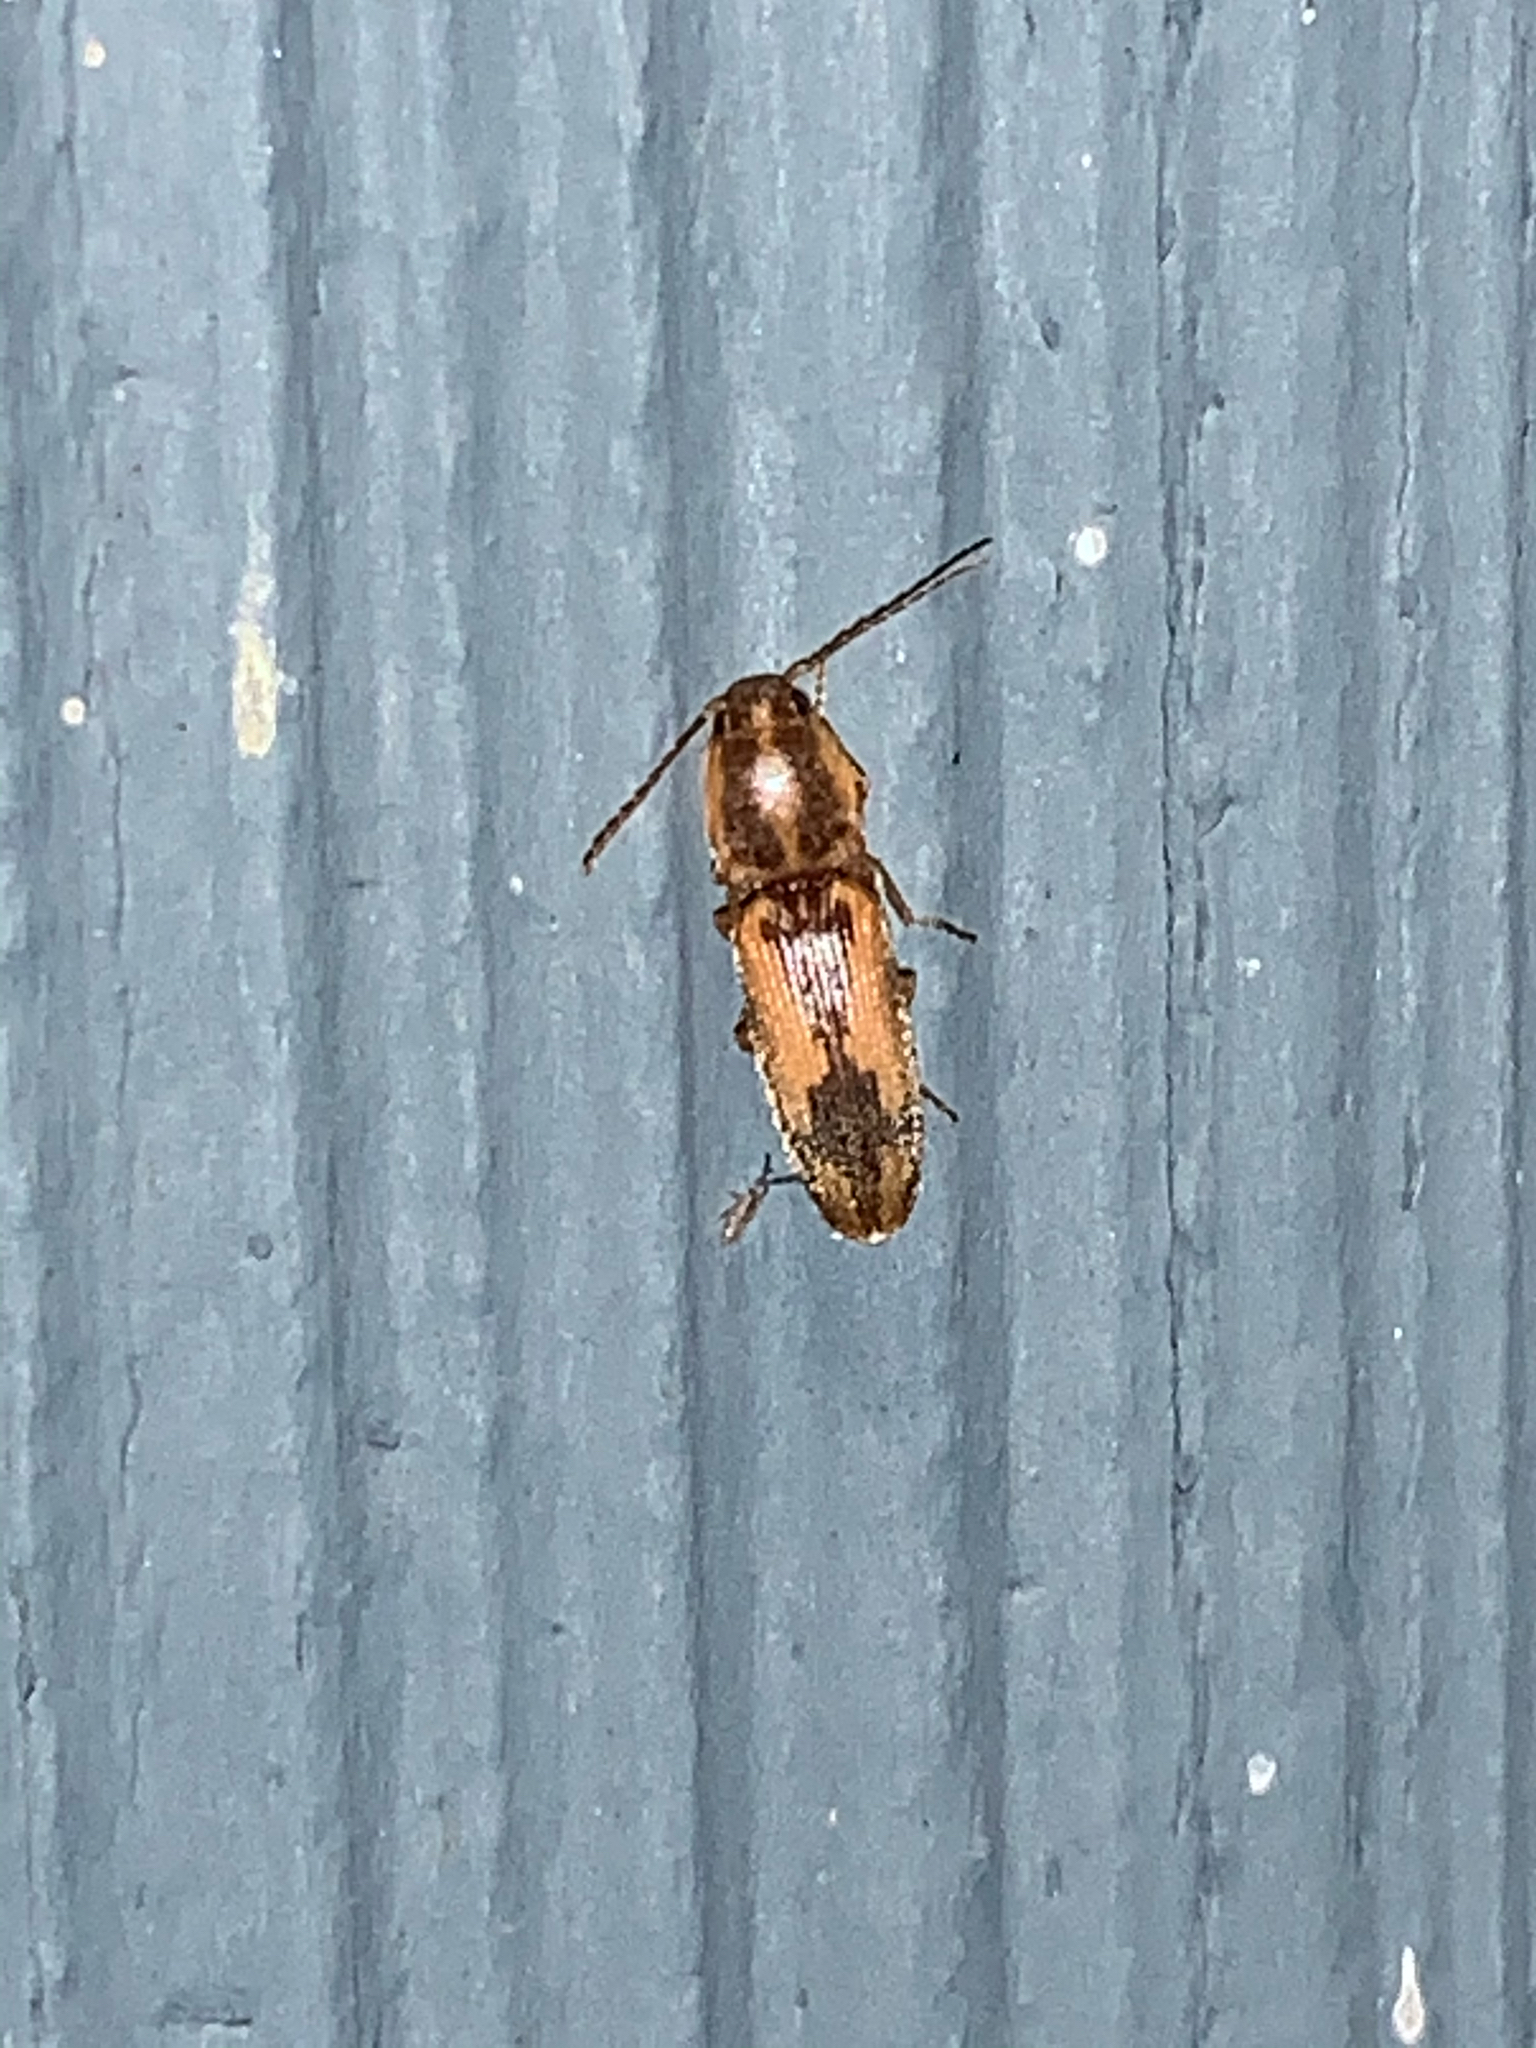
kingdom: Animalia
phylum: Arthropoda
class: Insecta
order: Coleoptera
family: Elateridae
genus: Monocrepidius
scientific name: Monocrepidius
